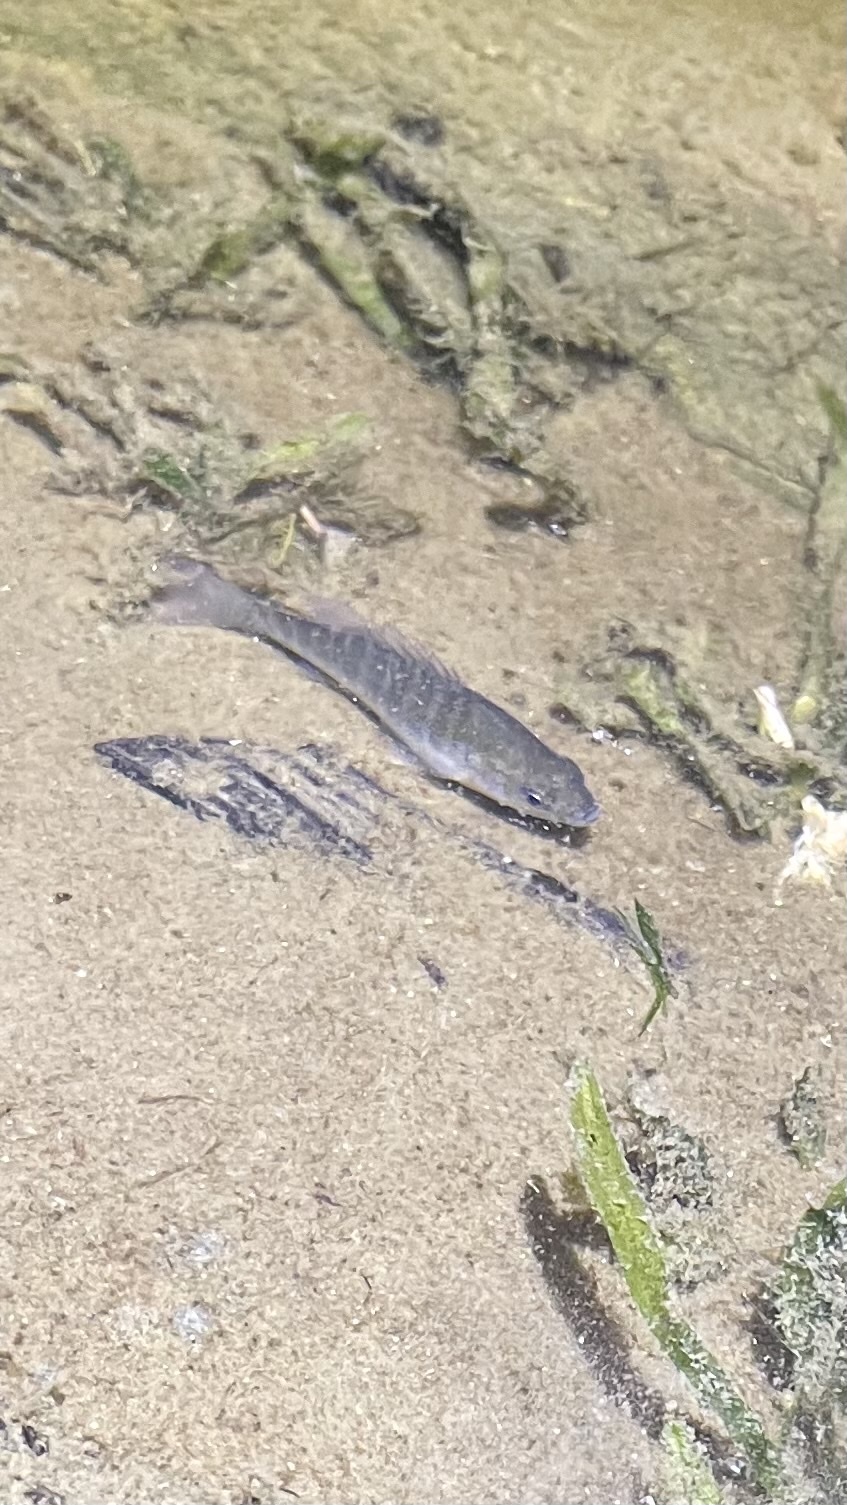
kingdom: Animalia
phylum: Chordata
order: Perciformes
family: Centrarchidae
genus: Lepomis
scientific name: Lepomis
